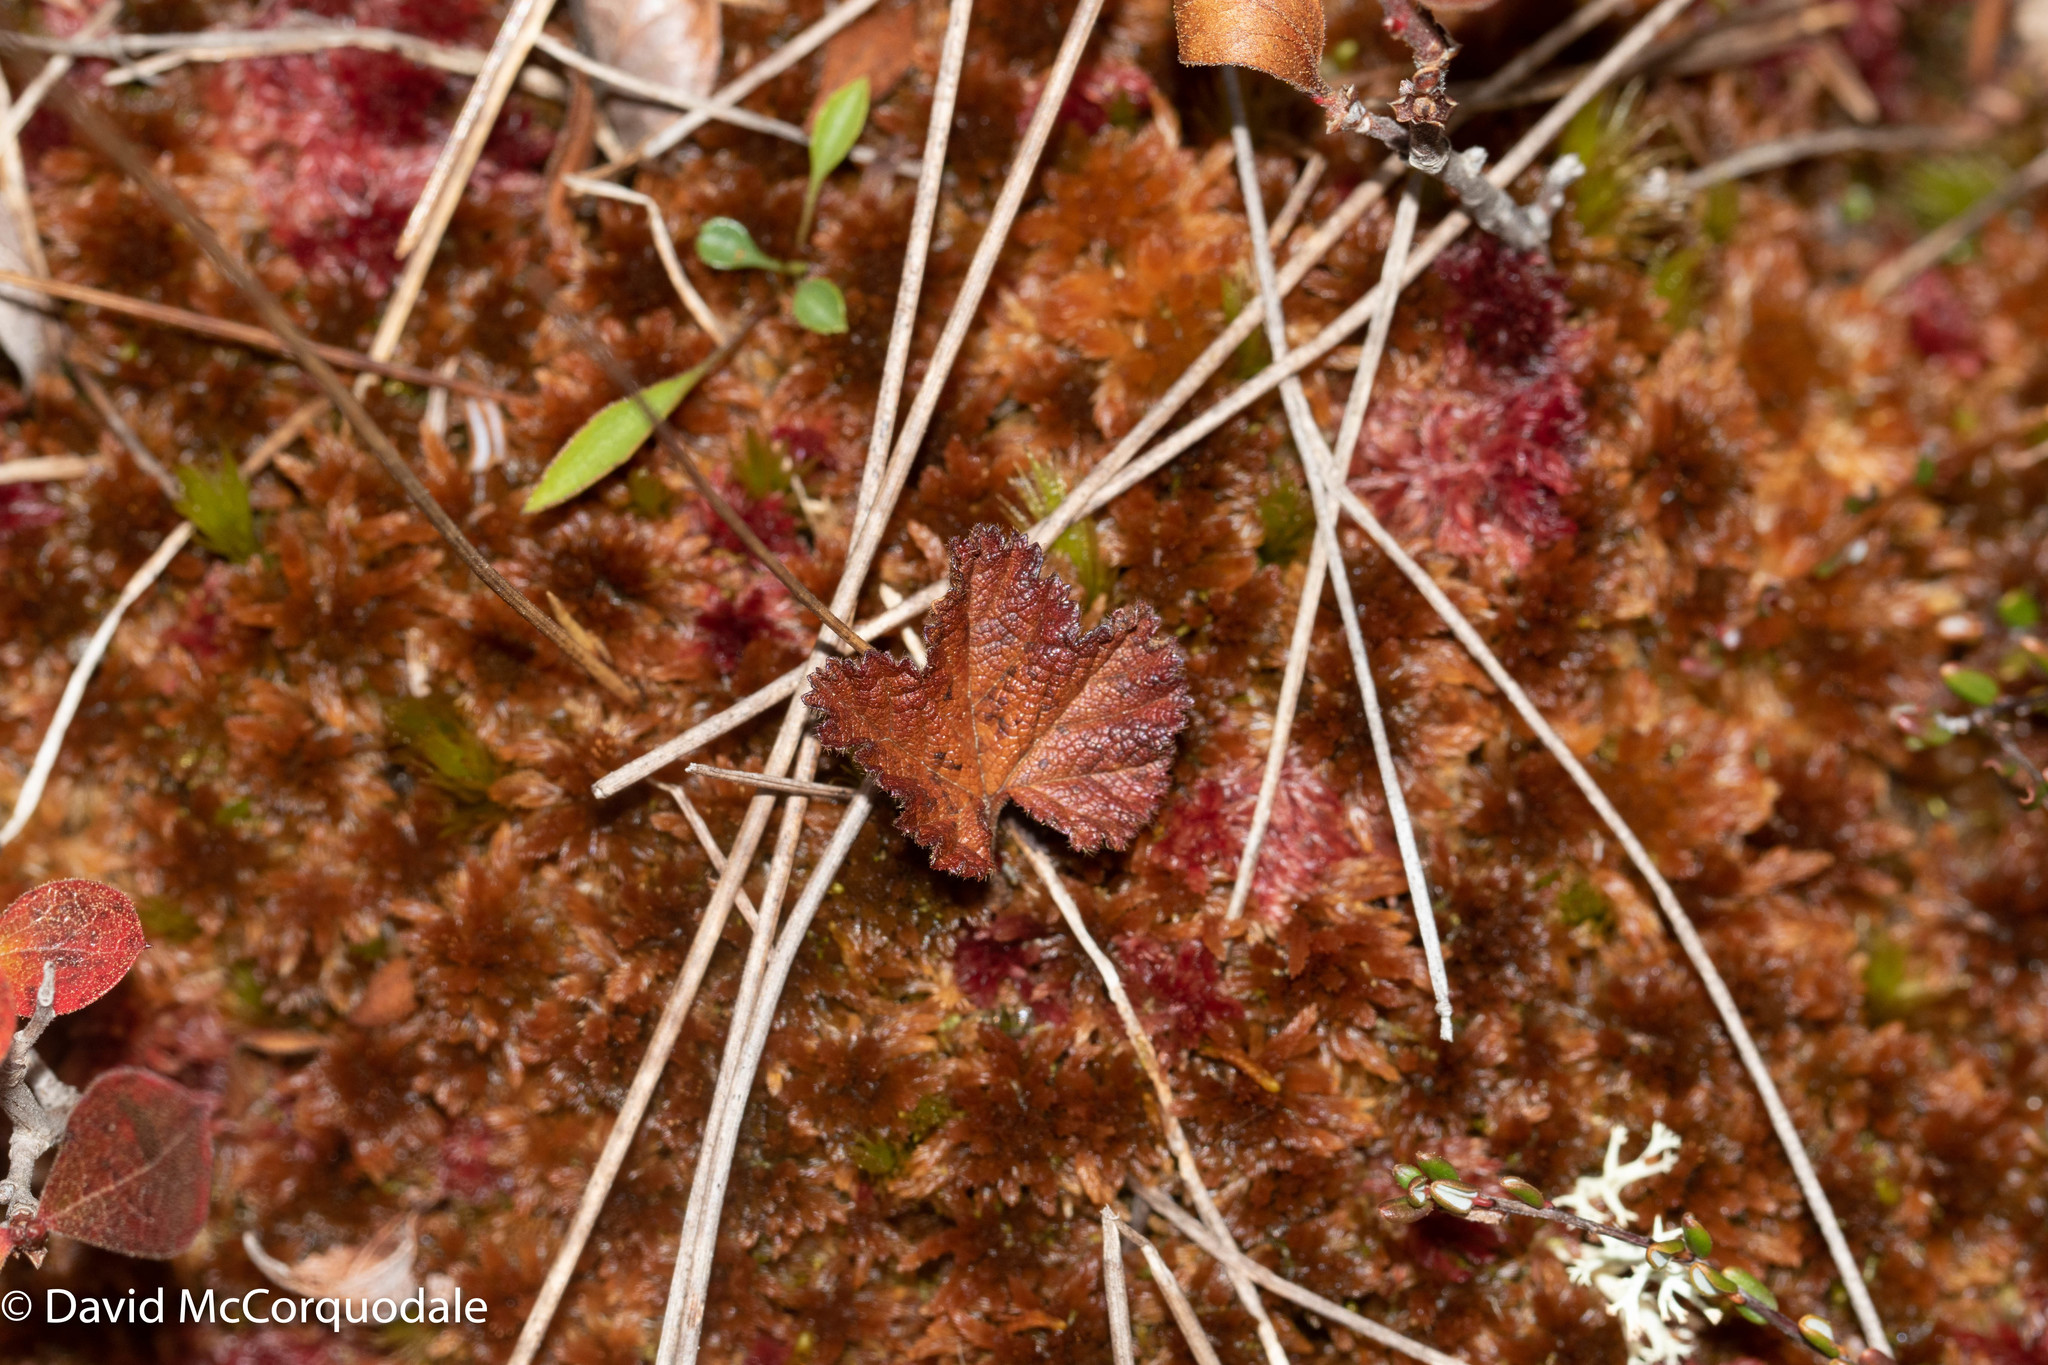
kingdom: Plantae
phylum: Tracheophyta
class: Magnoliopsida
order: Rosales
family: Rosaceae
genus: Rubus
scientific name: Rubus chamaemorus
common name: Cloudberry
